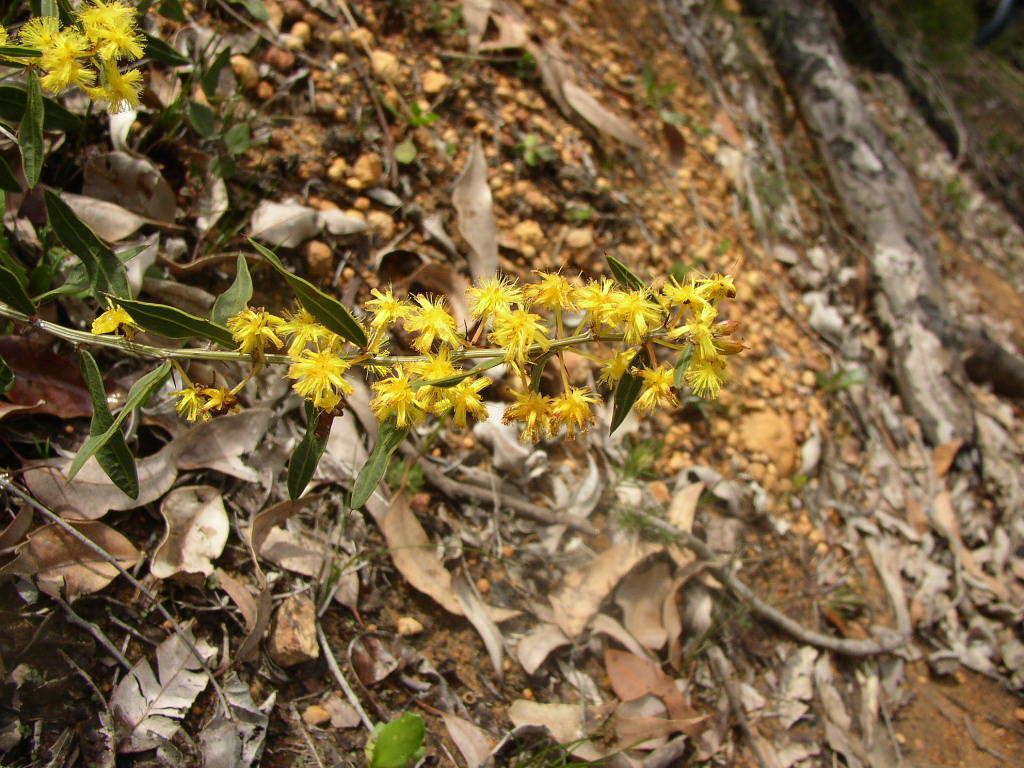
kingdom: Plantae
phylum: Tracheophyta
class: Magnoliopsida
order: Fabales
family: Fabaceae
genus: Acacia
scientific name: Acacia nervosa
